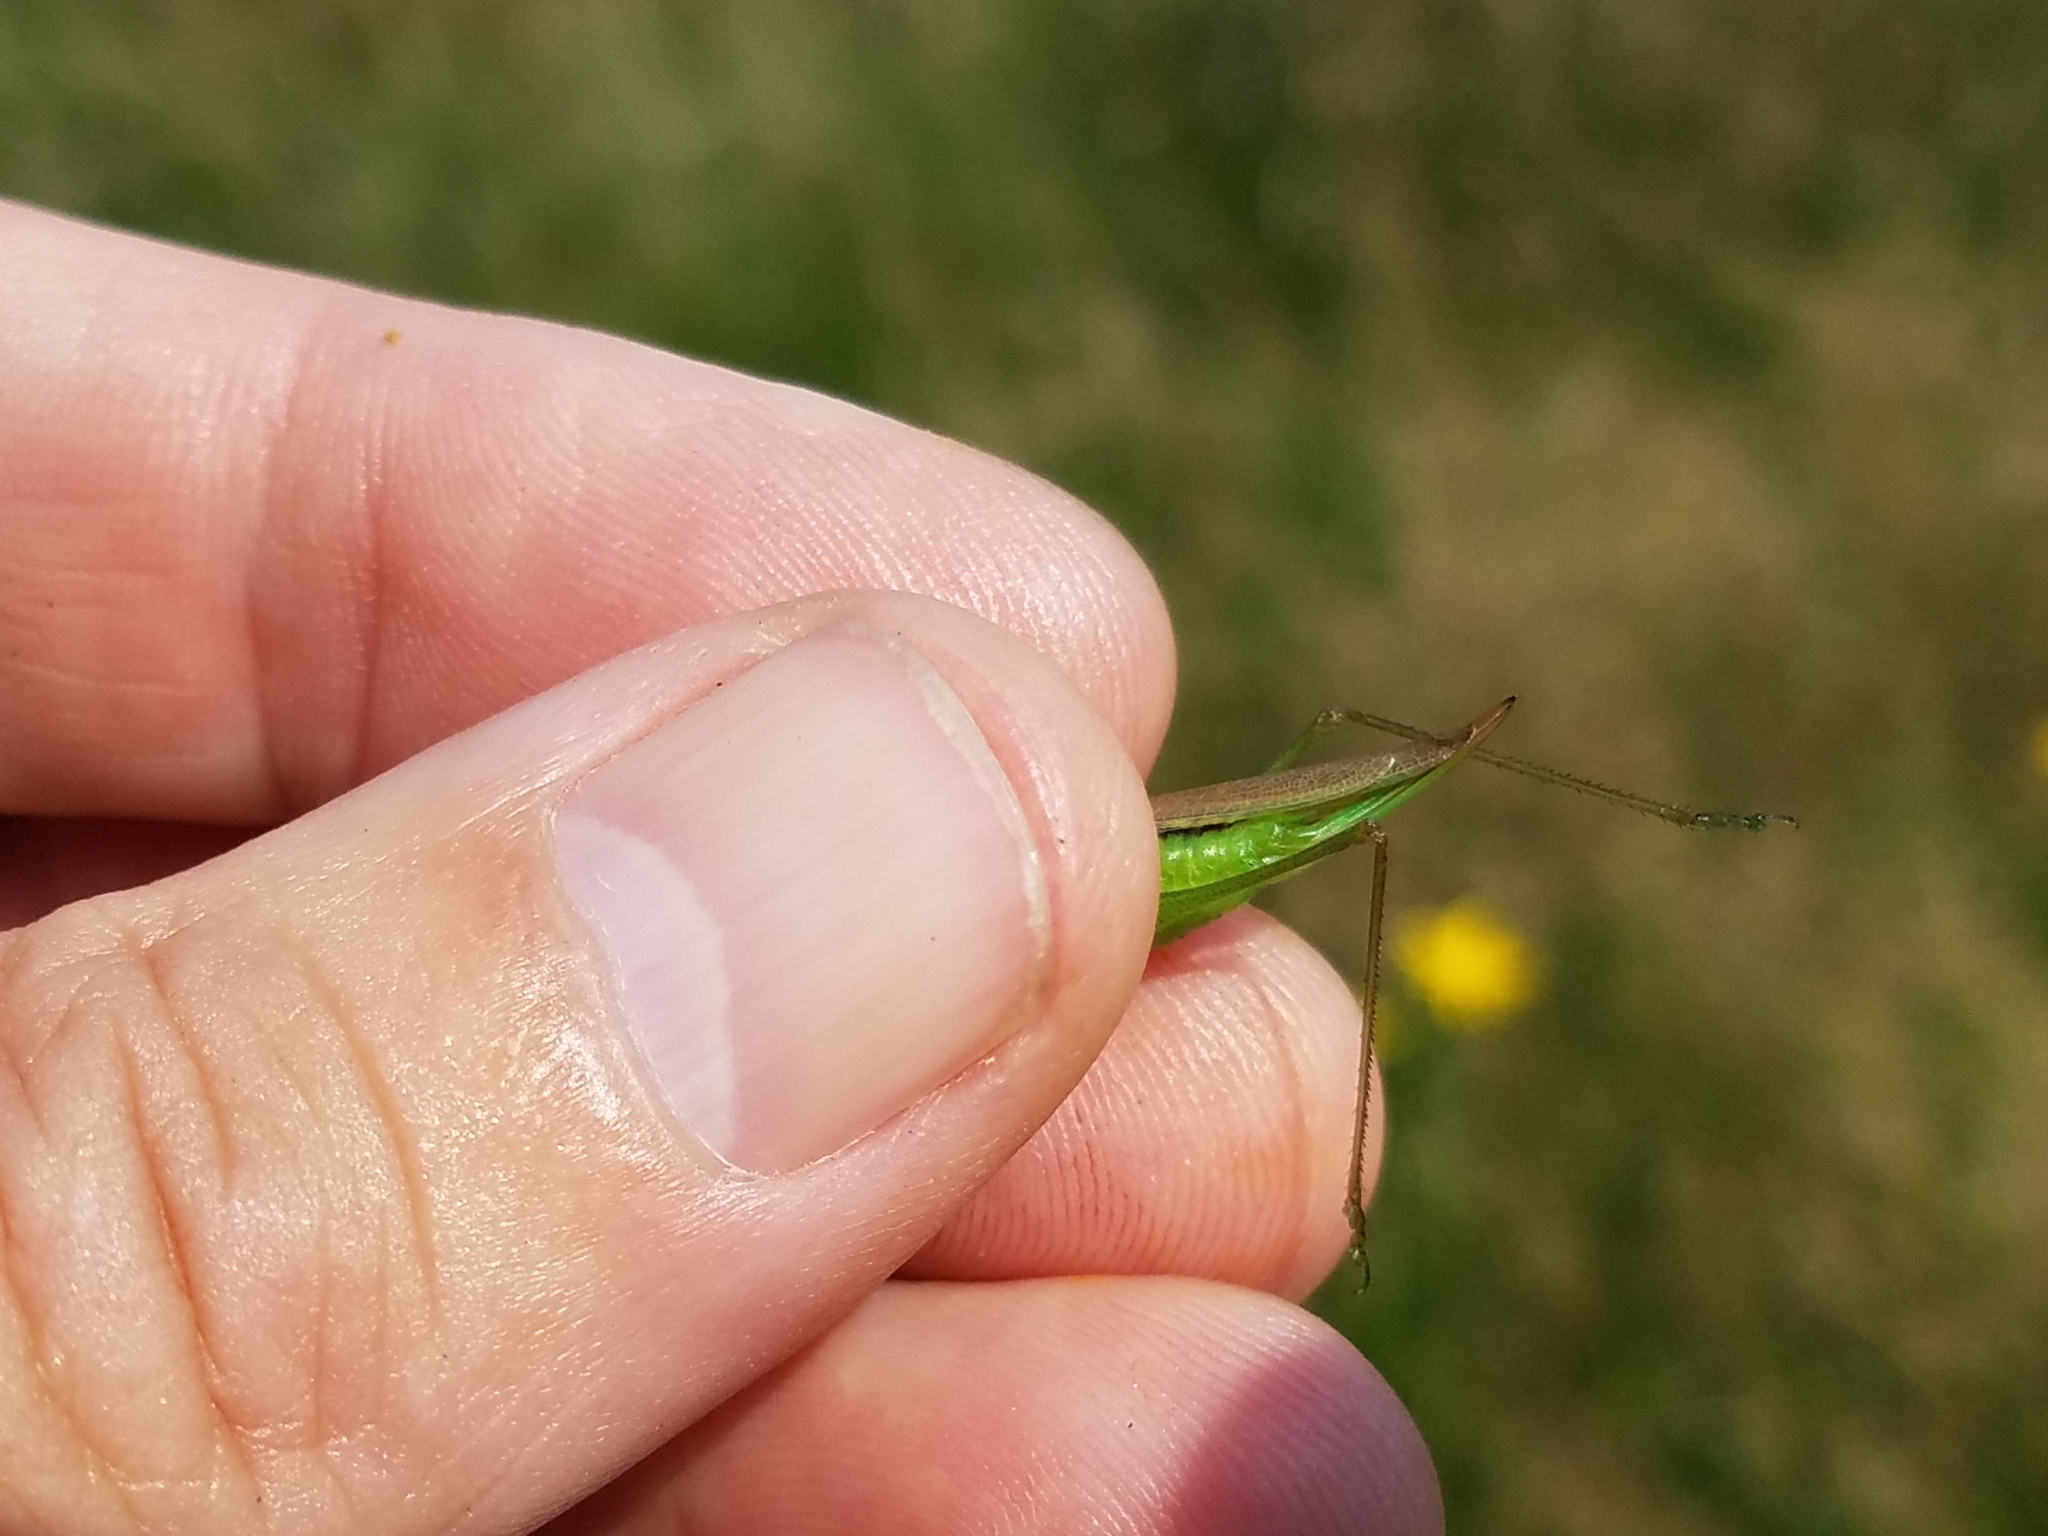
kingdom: Animalia
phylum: Arthropoda
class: Insecta
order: Orthoptera
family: Tettigoniidae
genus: Conocephalus
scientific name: Conocephalus fasciatus
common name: Slender meadow katydid
